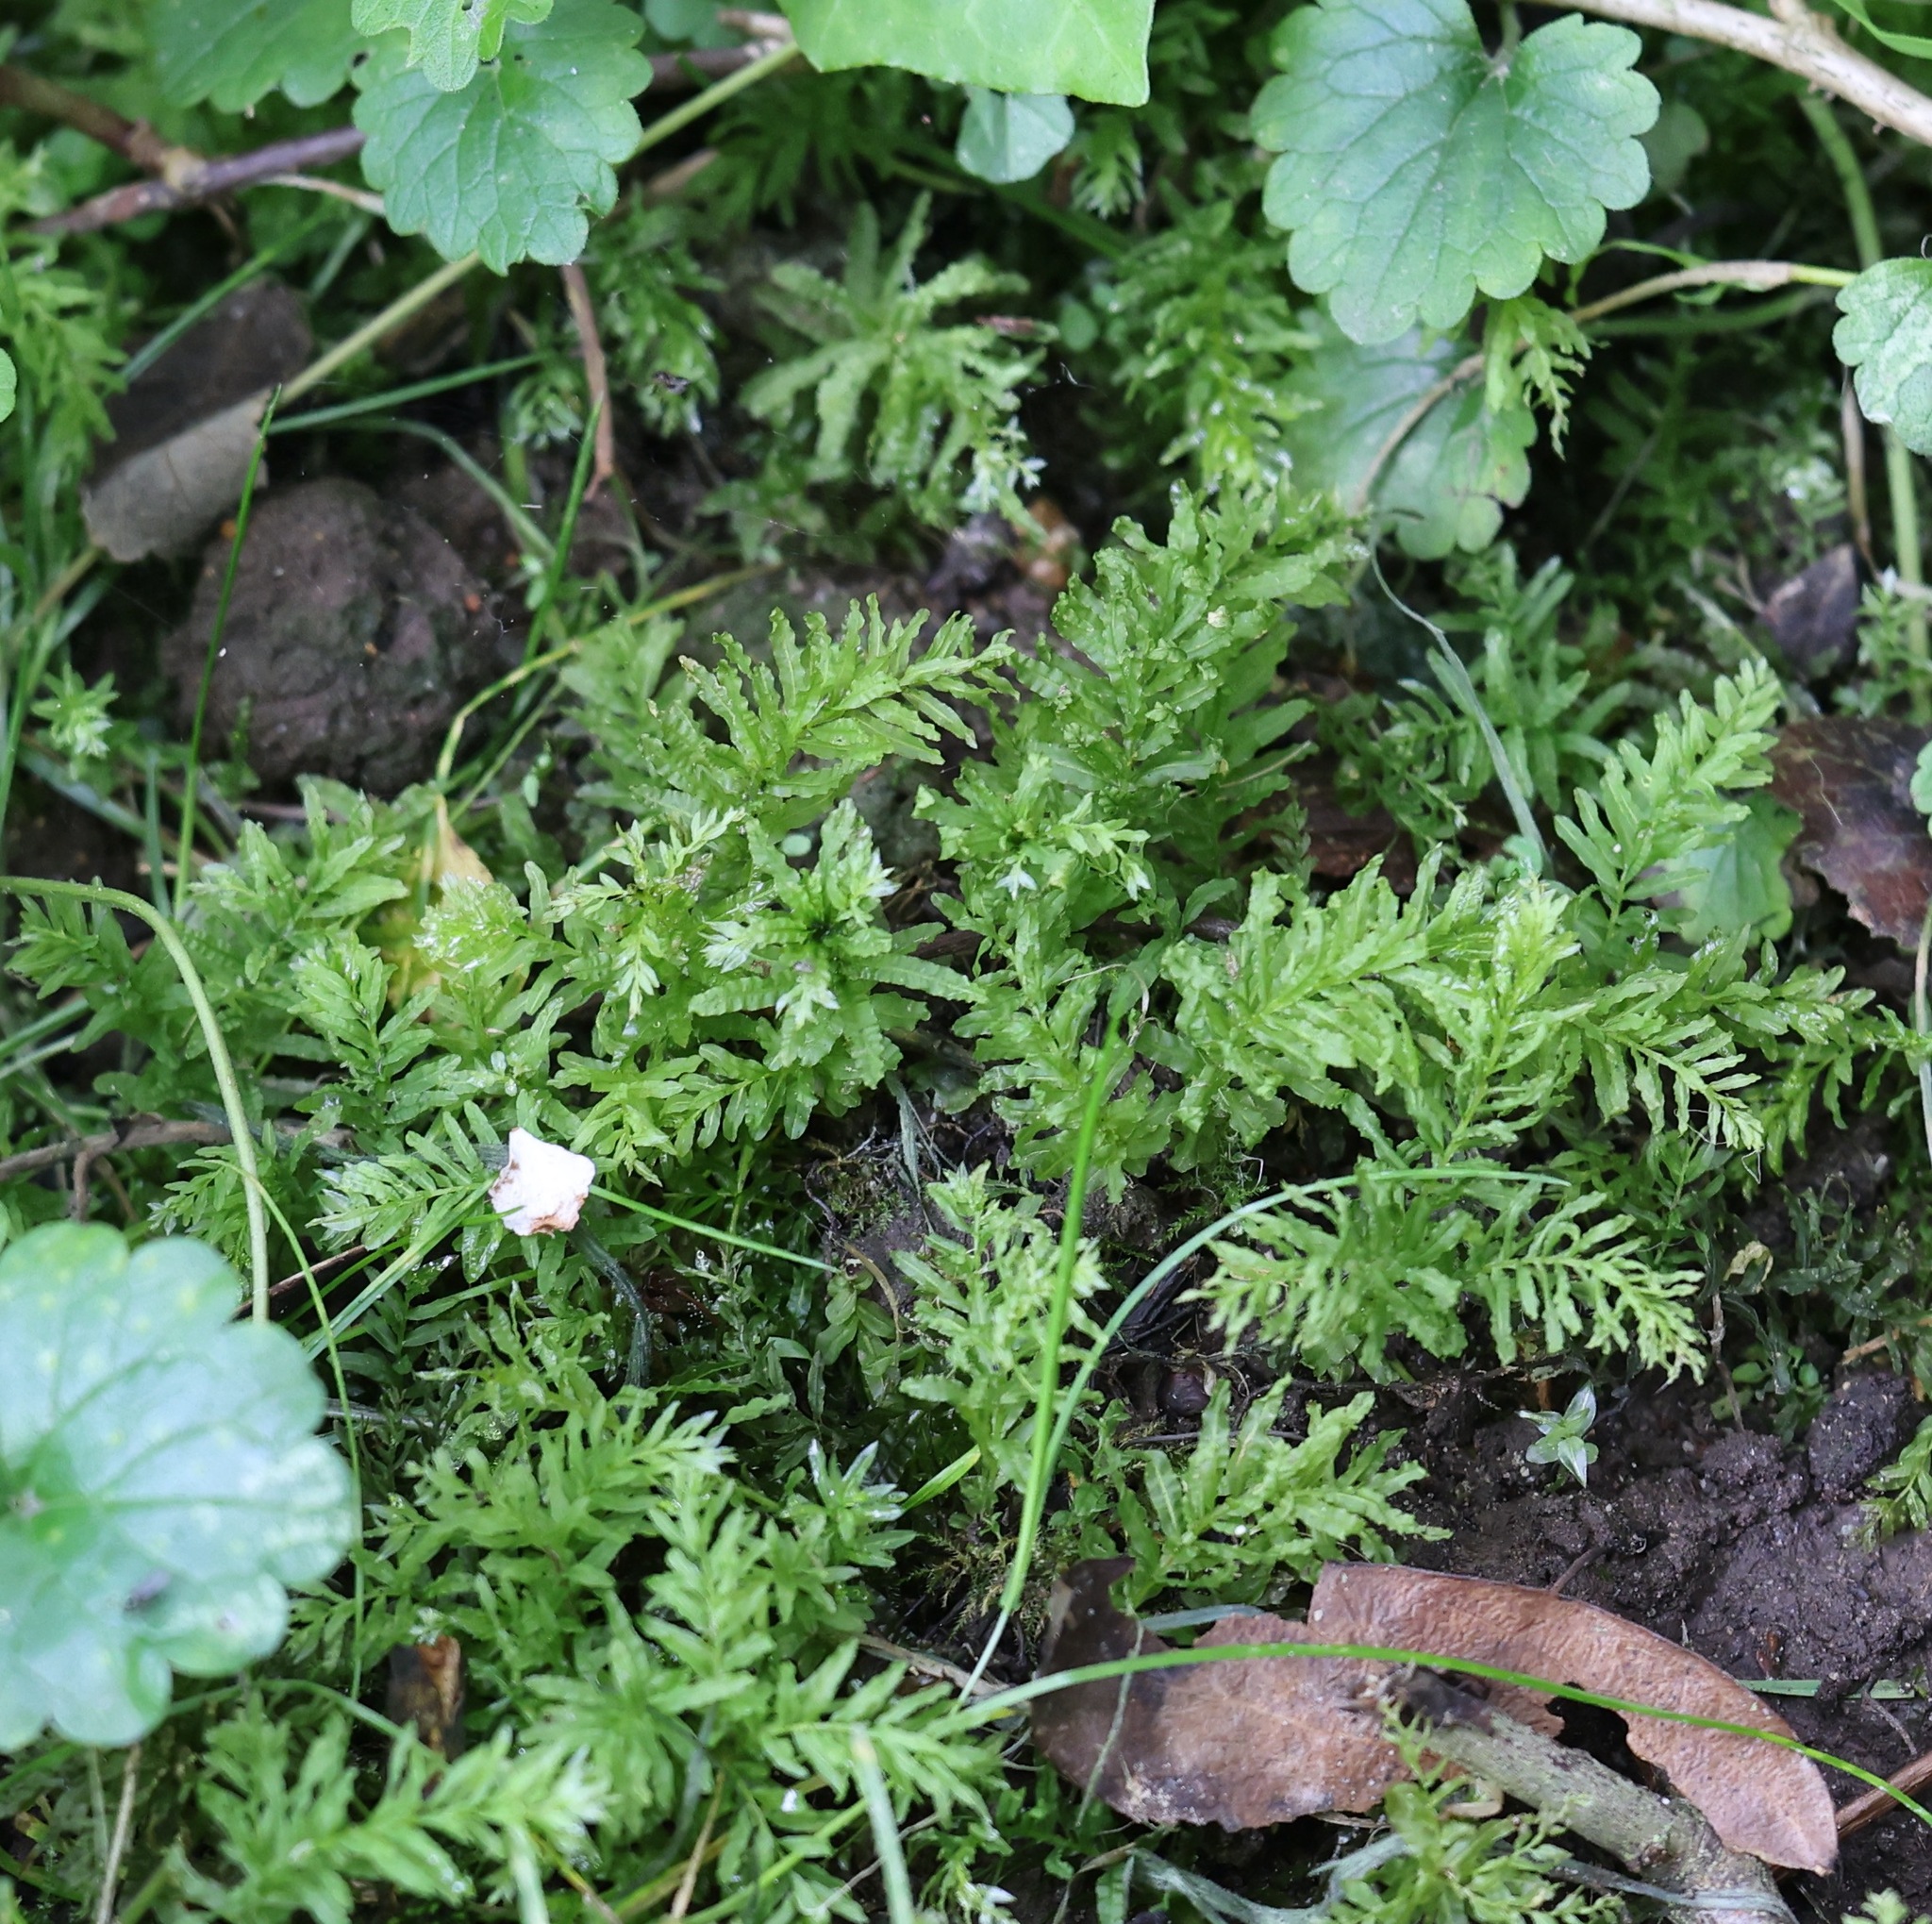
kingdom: Plantae
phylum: Bryophyta
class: Bryopsida
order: Bryales
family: Mniaceae
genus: Plagiomnium
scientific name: Plagiomnium undulatum
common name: Hart's-tongue thyme-moss
